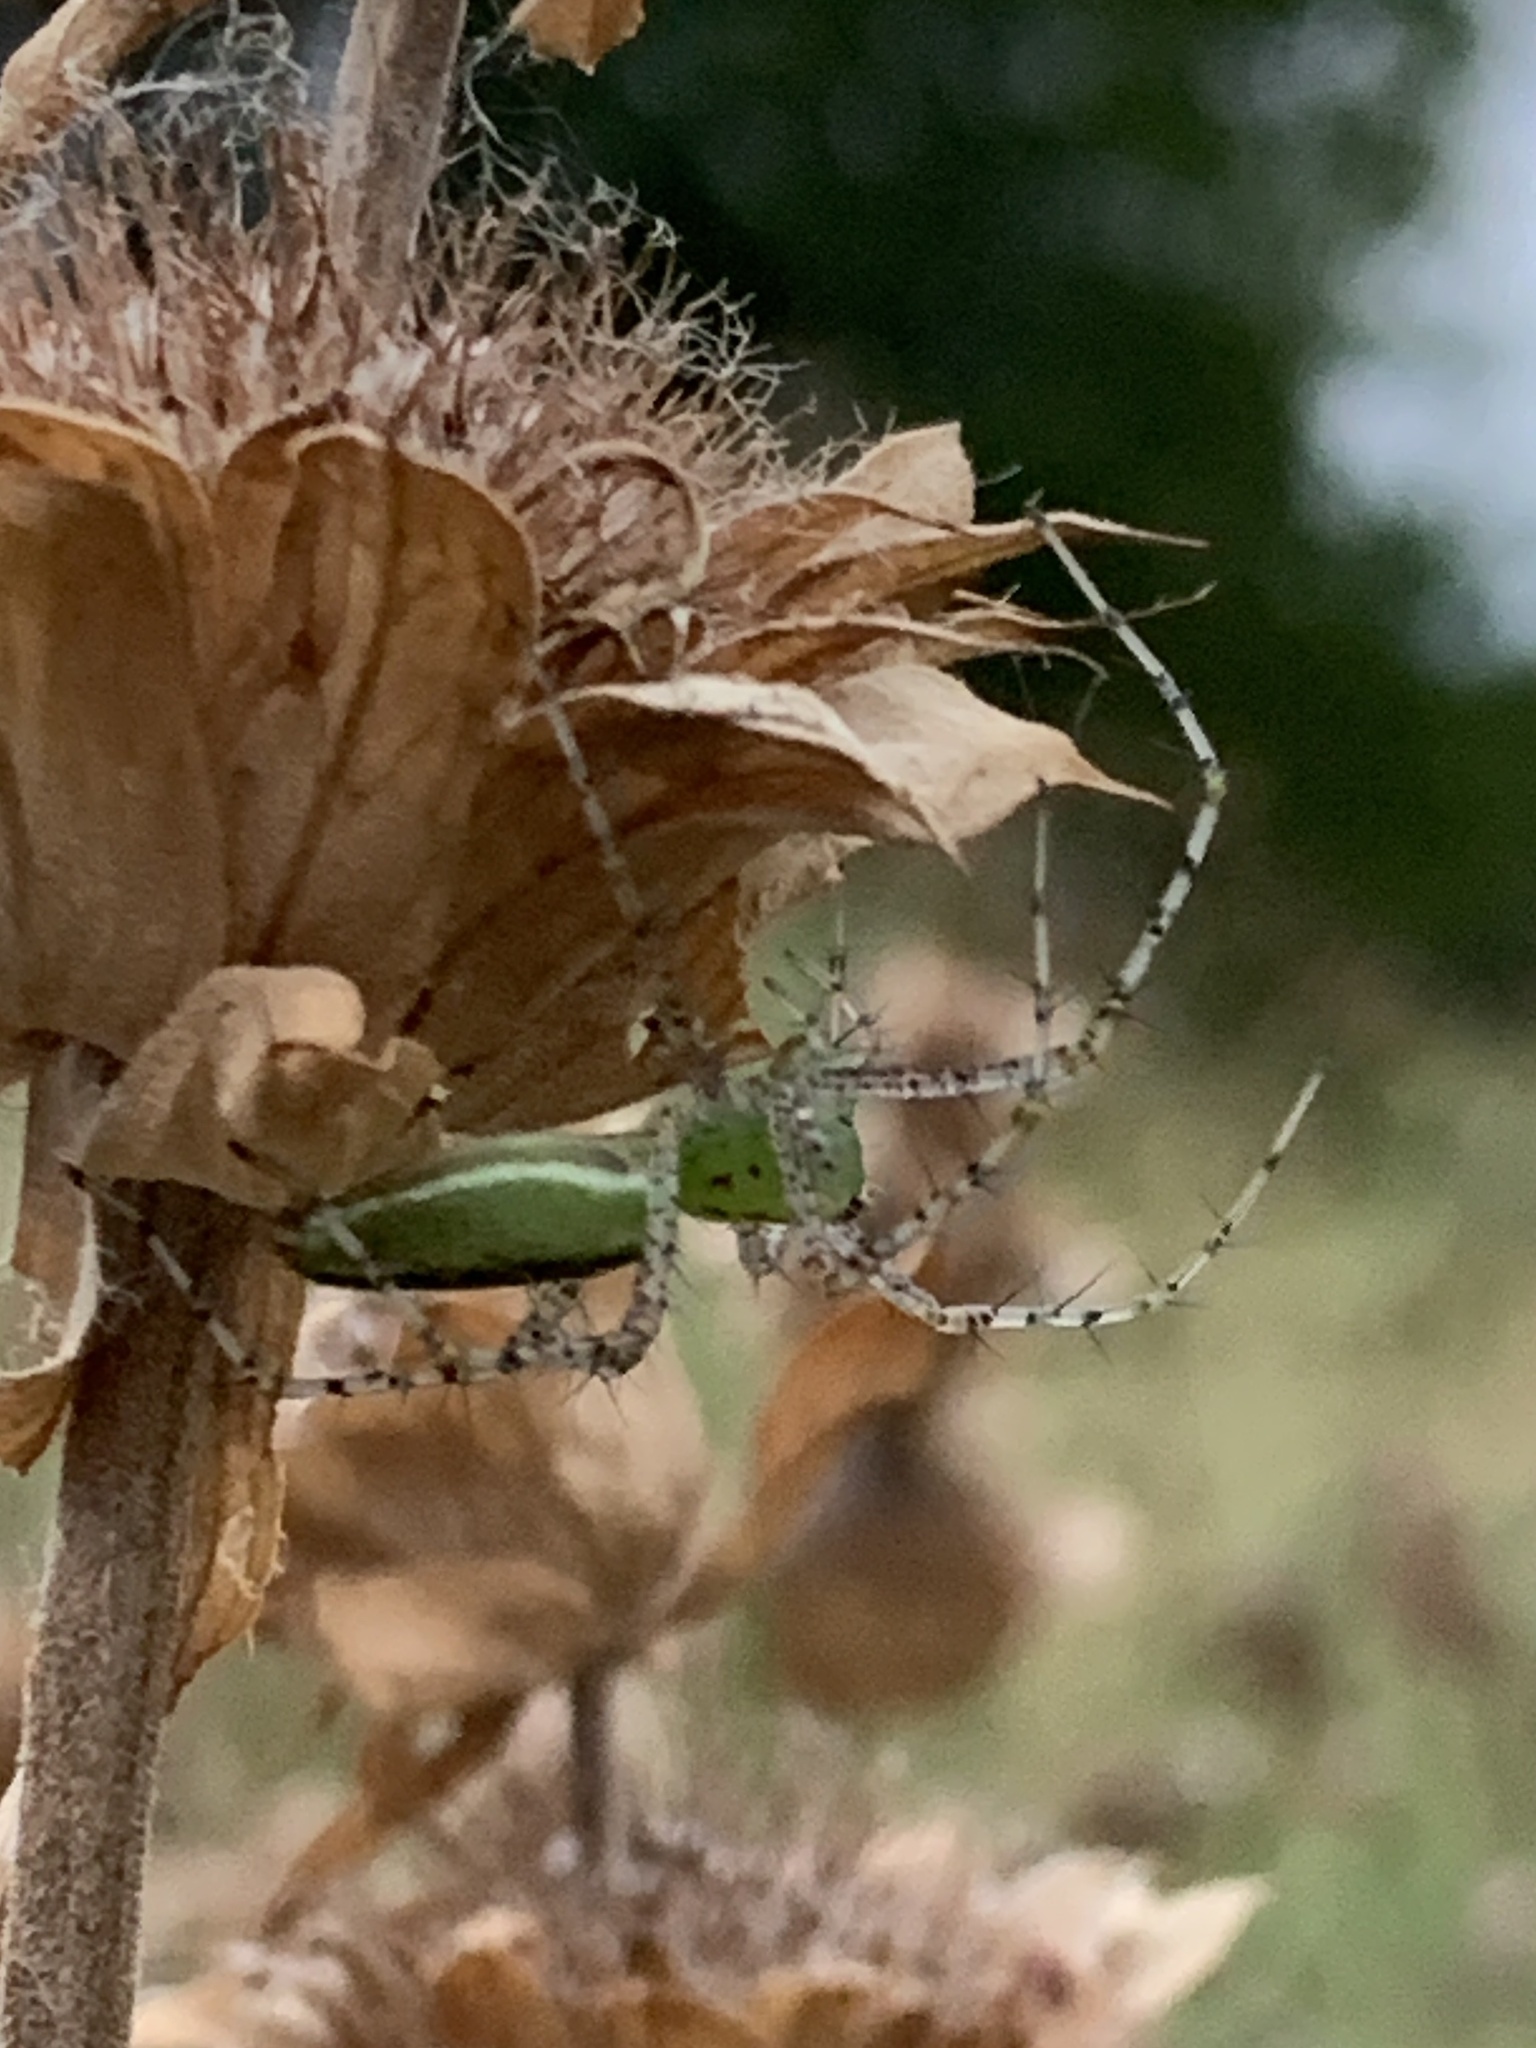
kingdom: Animalia
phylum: Arthropoda
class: Arachnida
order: Araneae
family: Oxyopidae
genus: Peucetia
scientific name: Peucetia viridans
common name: Lynx spiders
